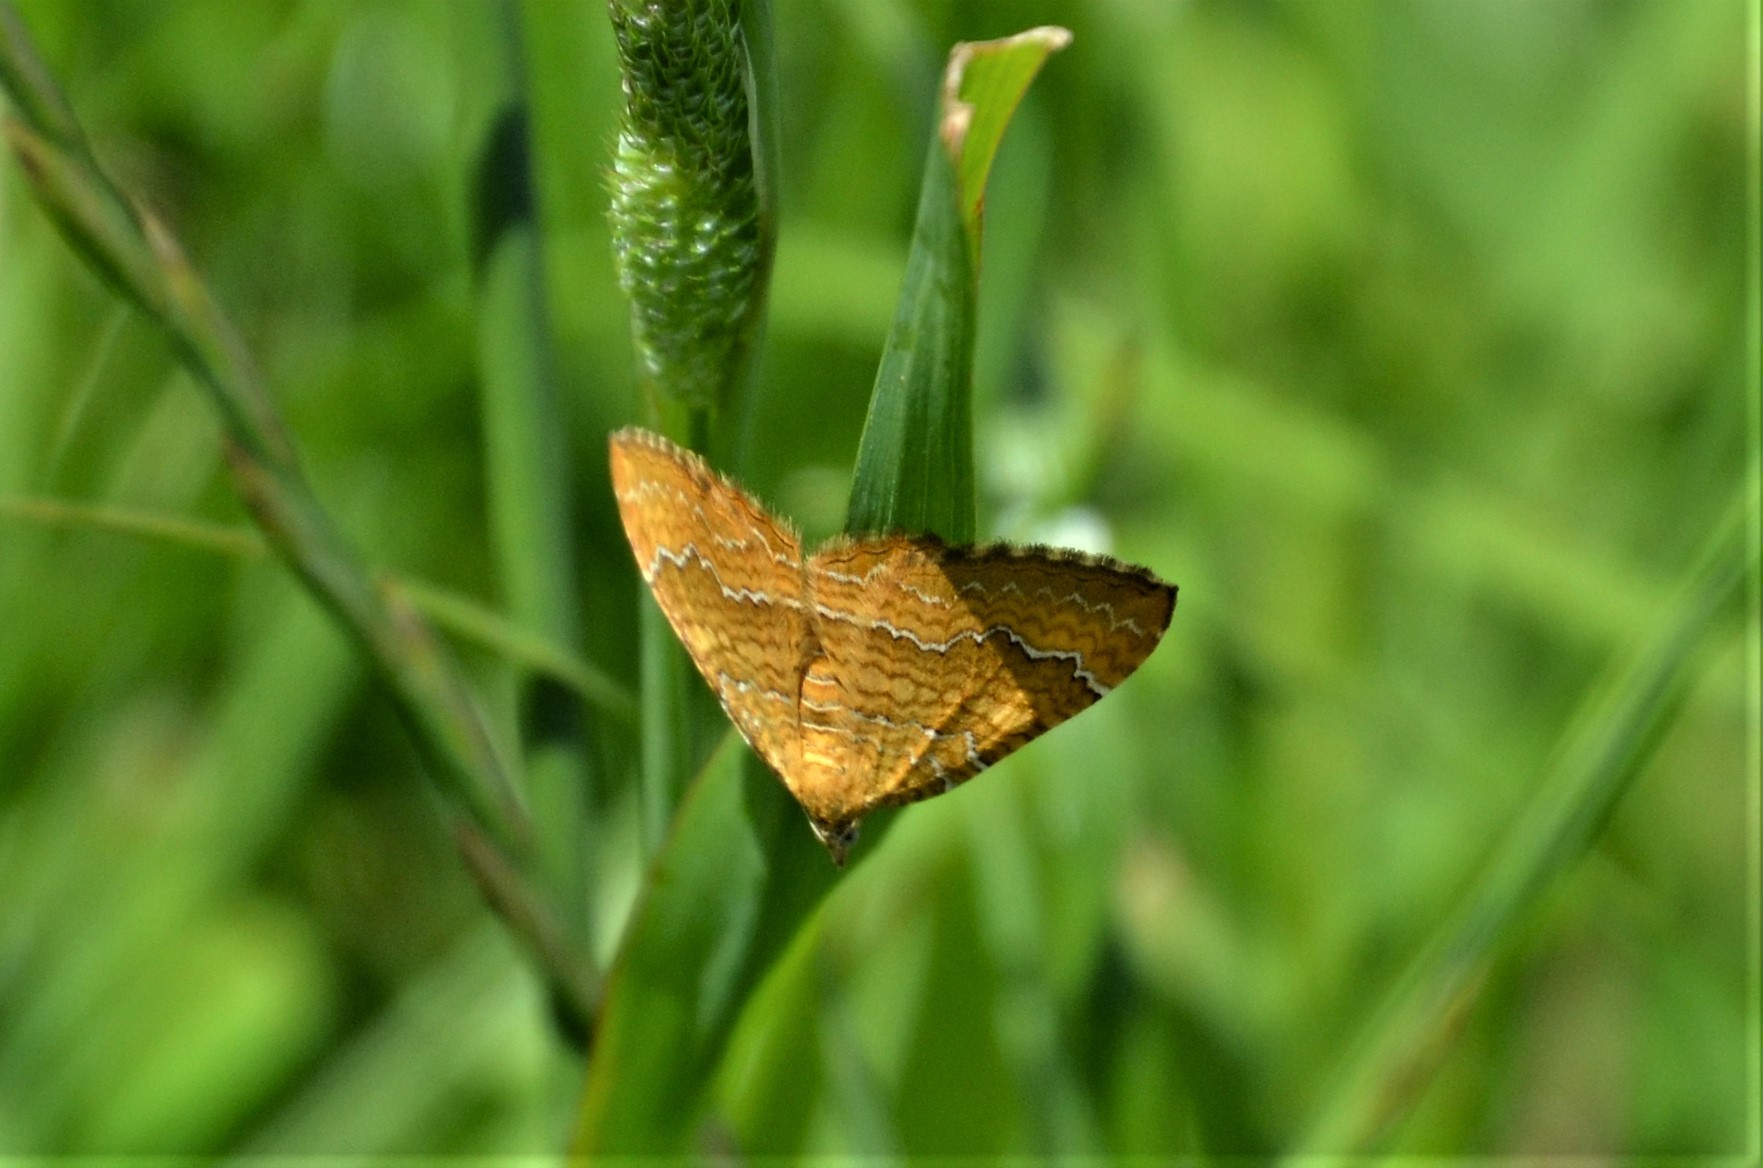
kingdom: Animalia
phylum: Arthropoda
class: Insecta
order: Lepidoptera
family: Geometridae
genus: Camptogramma
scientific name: Camptogramma bilineata
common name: Yellow shell
